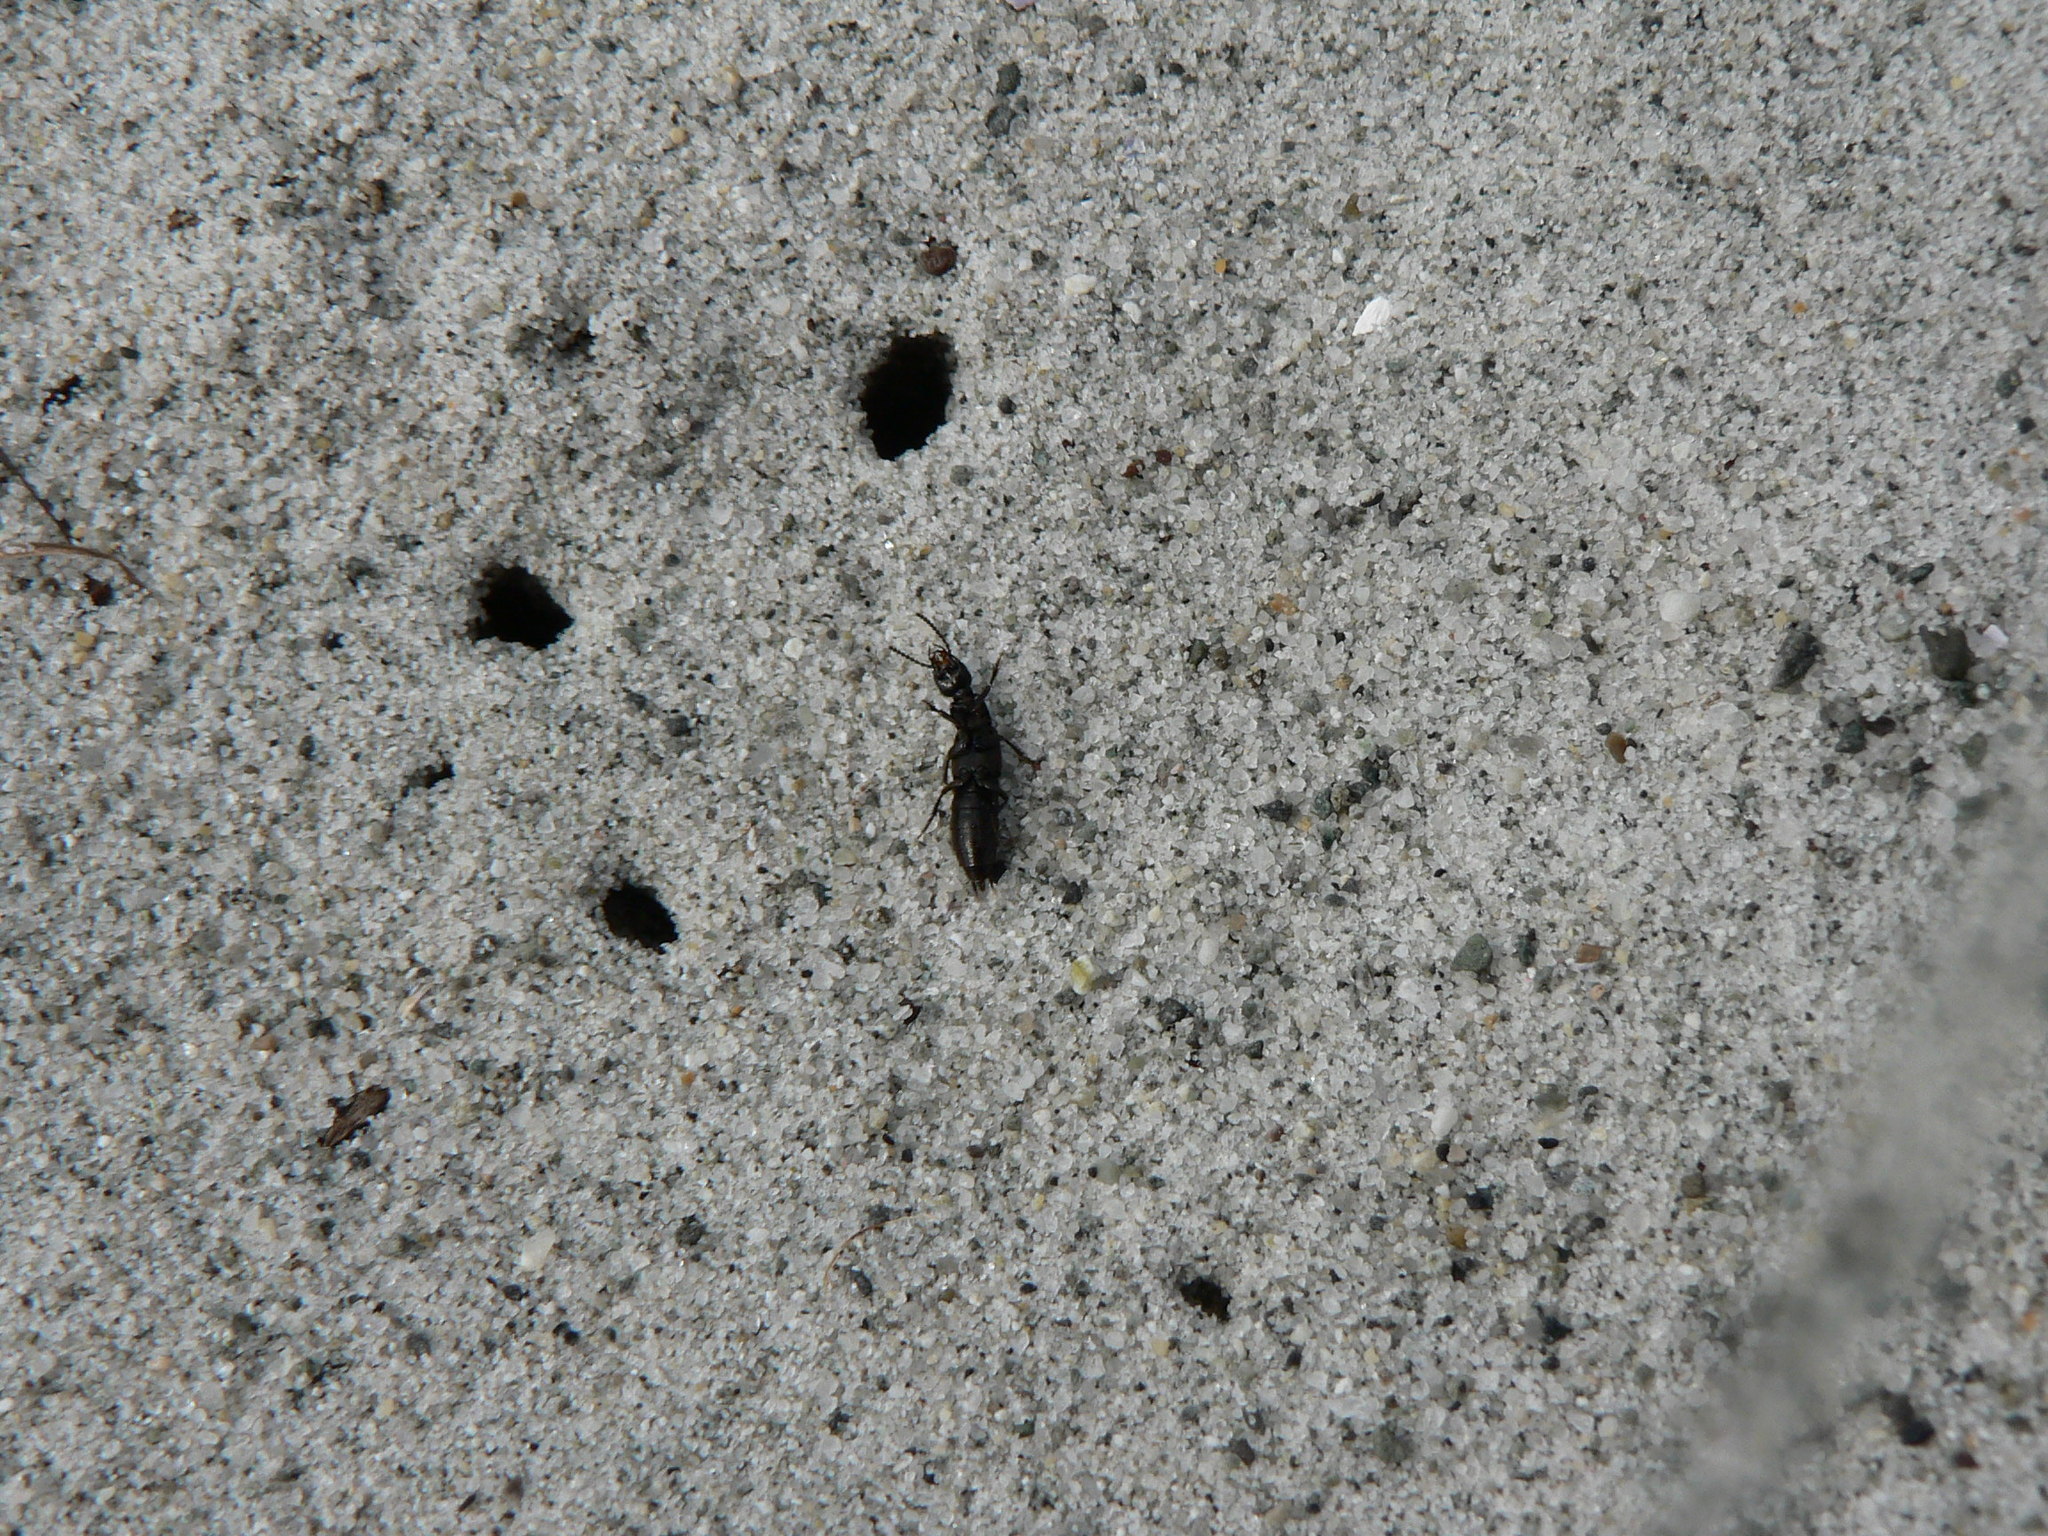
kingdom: Animalia
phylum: Arthropoda
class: Insecta
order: Coleoptera
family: Staphylinidae
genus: Philonthus
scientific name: Philonthus nudus
